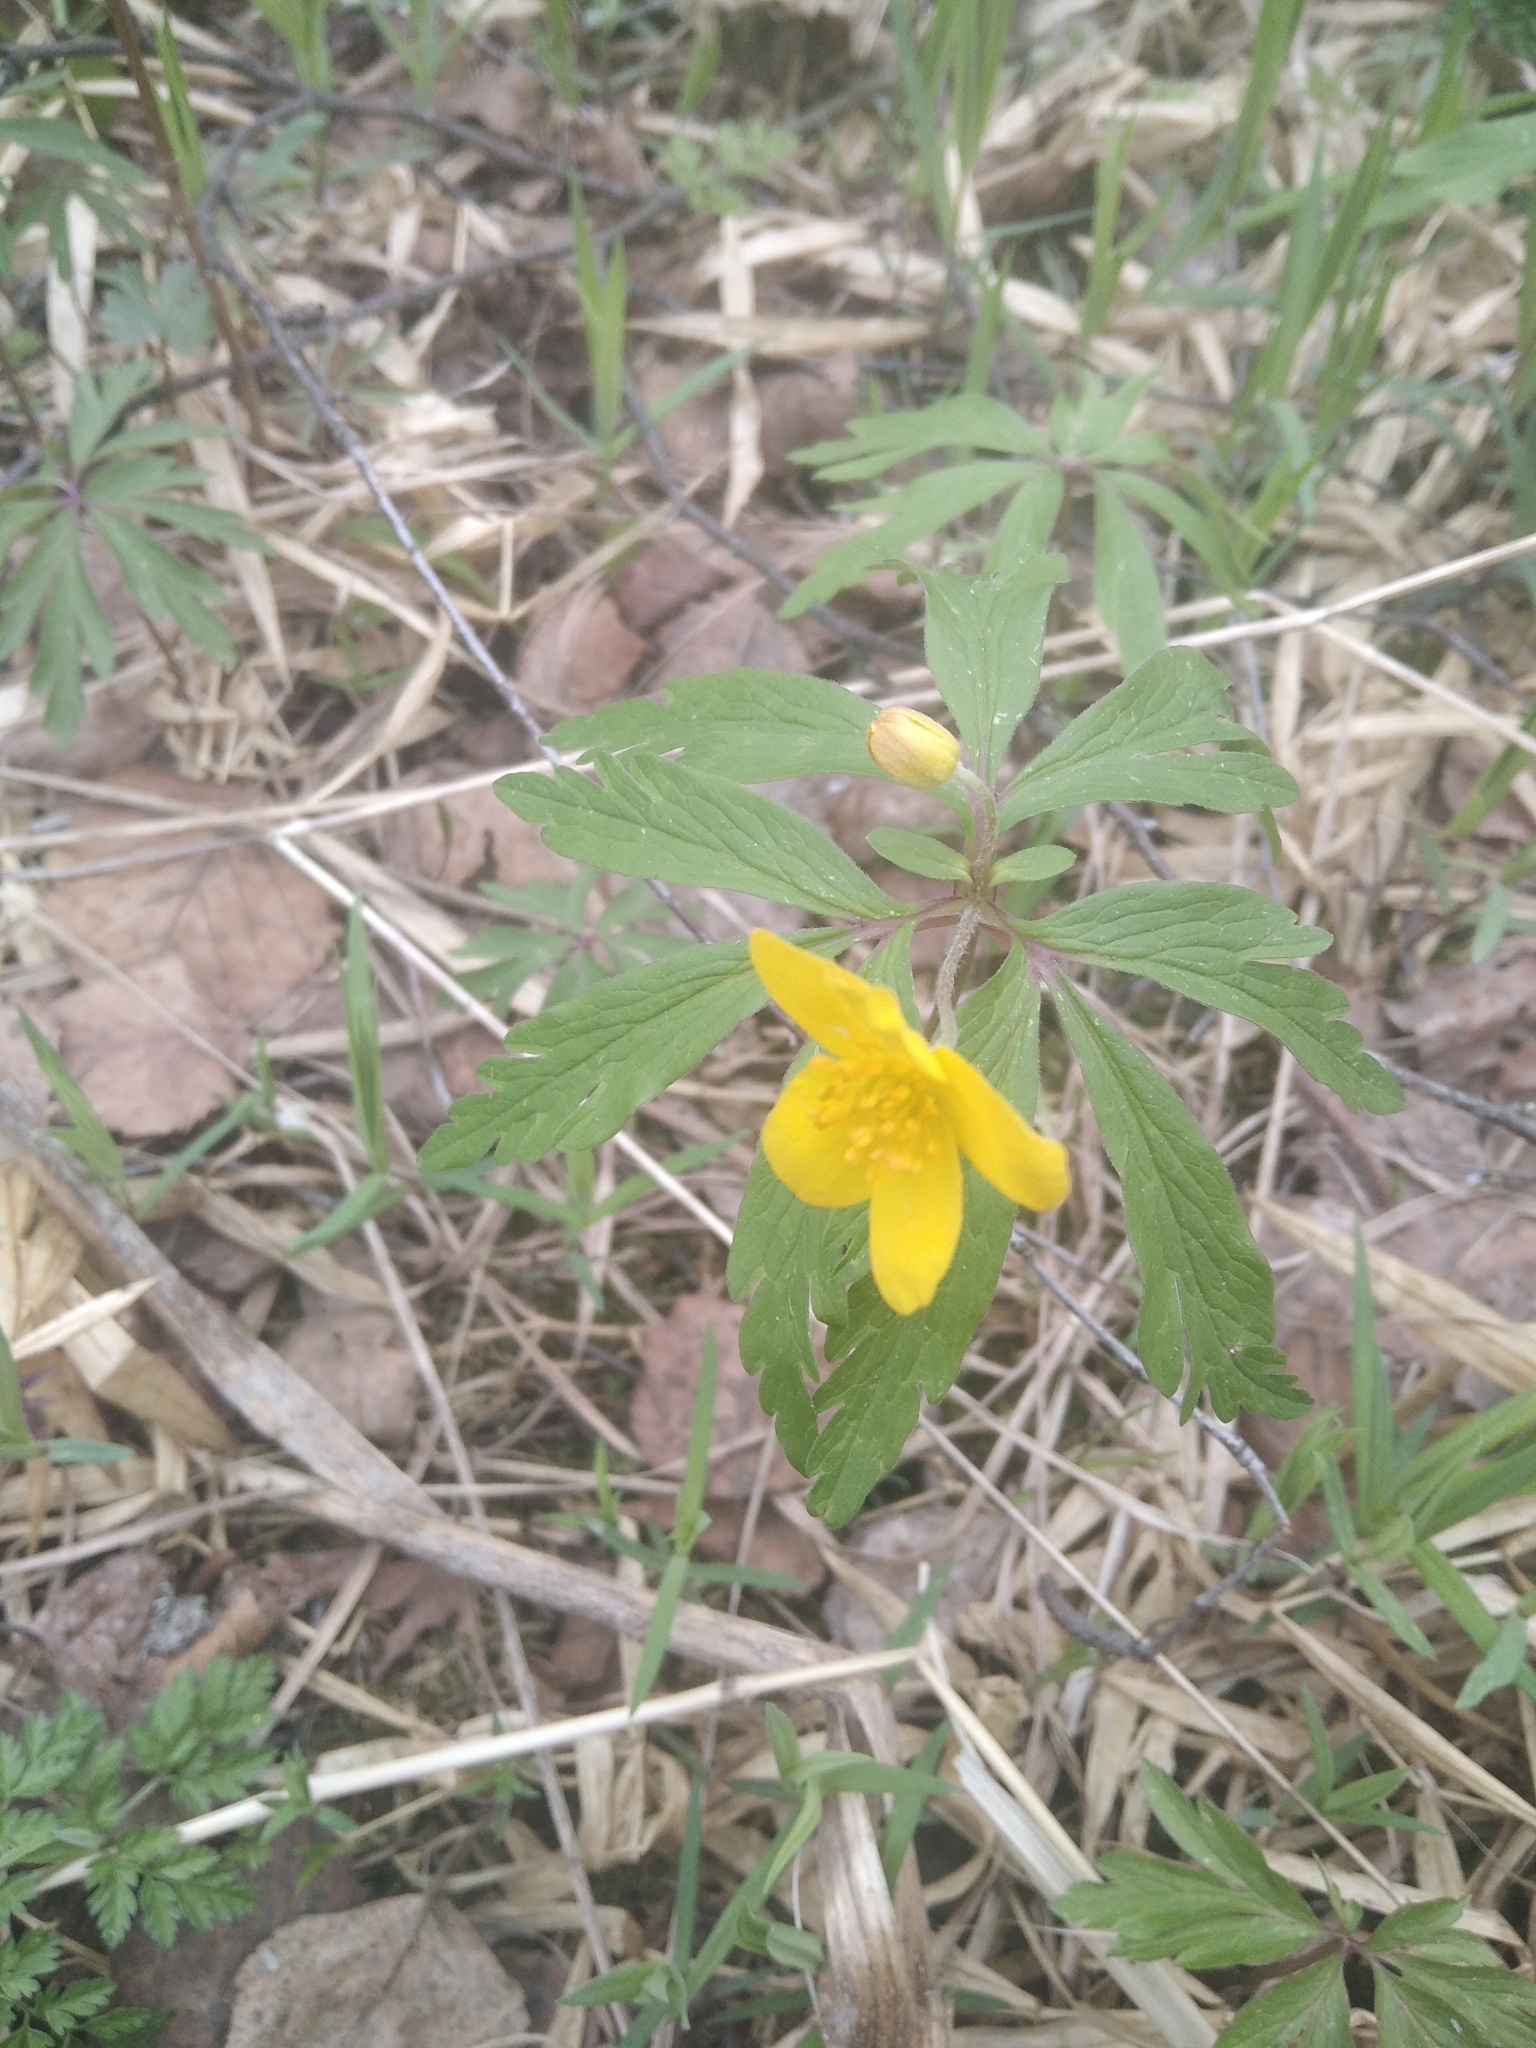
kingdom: Plantae
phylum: Tracheophyta
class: Magnoliopsida
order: Ranunculales
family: Ranunculaceae
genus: Anemone
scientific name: Anemone ranunculoides
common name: Yellow anemone
